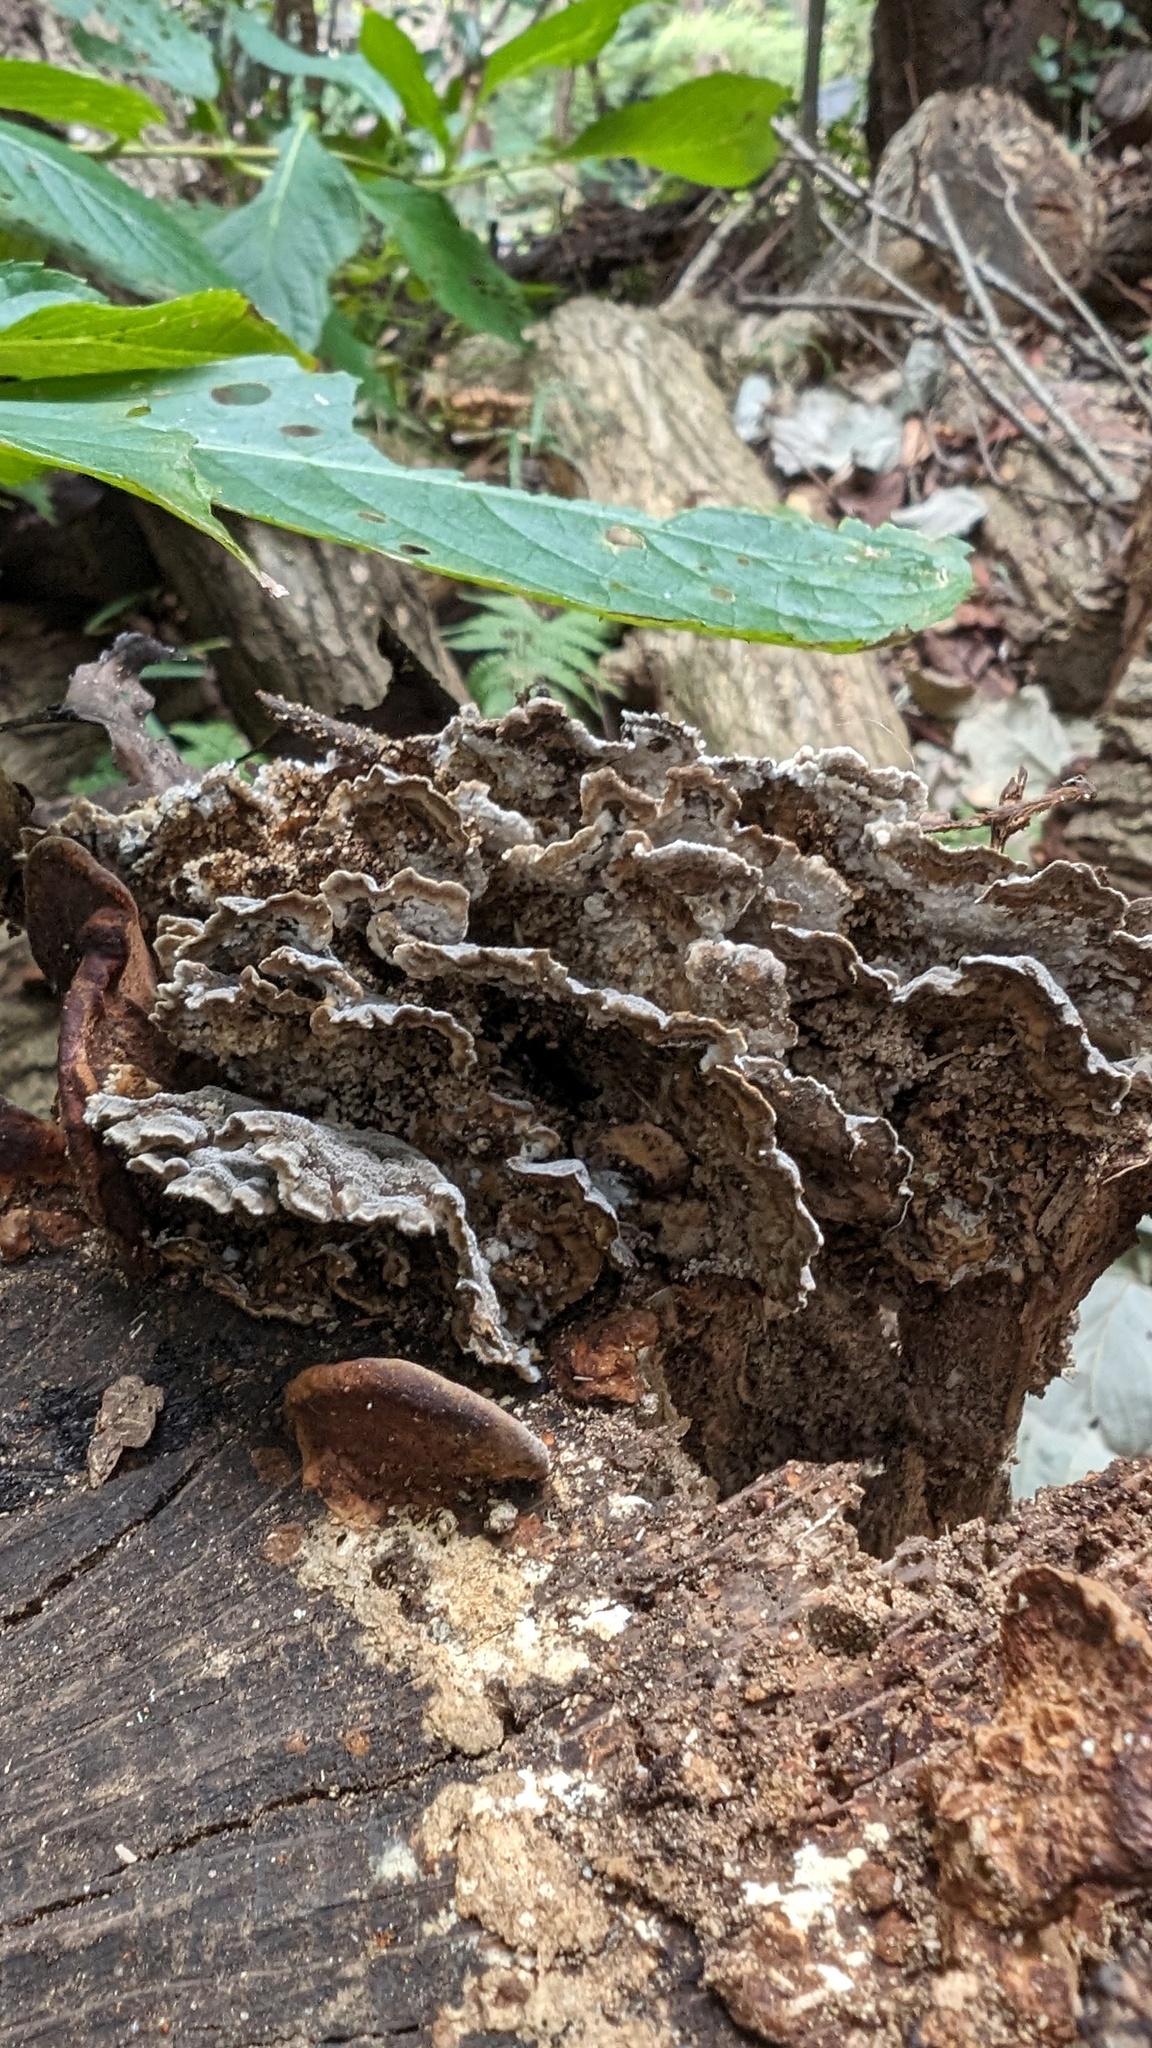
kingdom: Fungi
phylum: Basidiomycota
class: Agaricomycetes
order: Polyporales
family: Phanerochaetaceae
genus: Bjerkandera
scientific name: Bjerkandera adusta
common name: Smoky bracket
